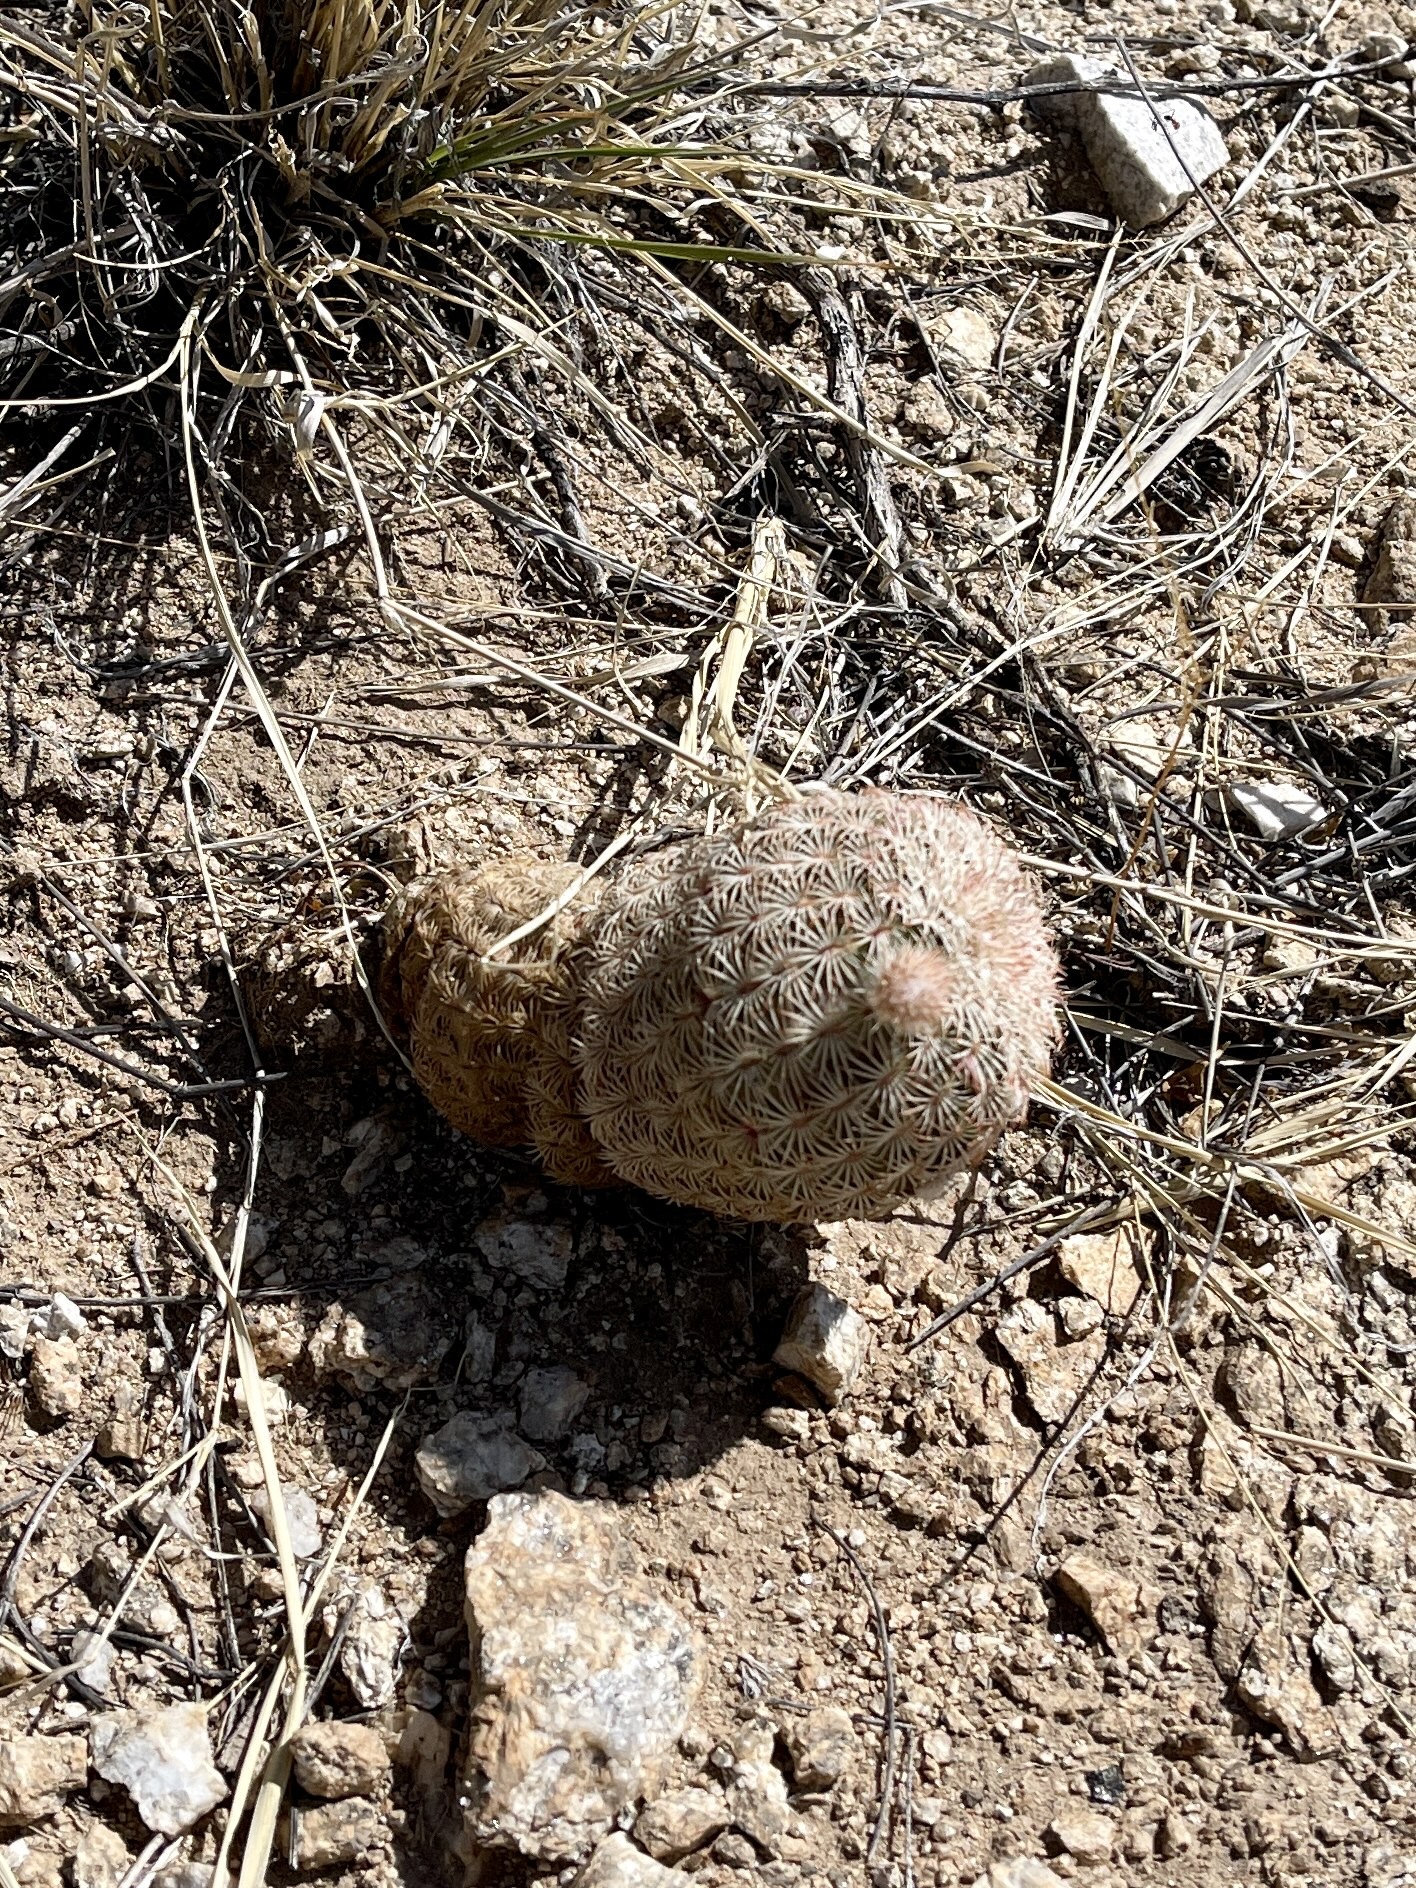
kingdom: Plantae
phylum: Tracheophyta
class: Magnoliopsida
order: Caryophyllales
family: Cactaceae
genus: Echinocereus
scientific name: Echinocereus rigidissimus
